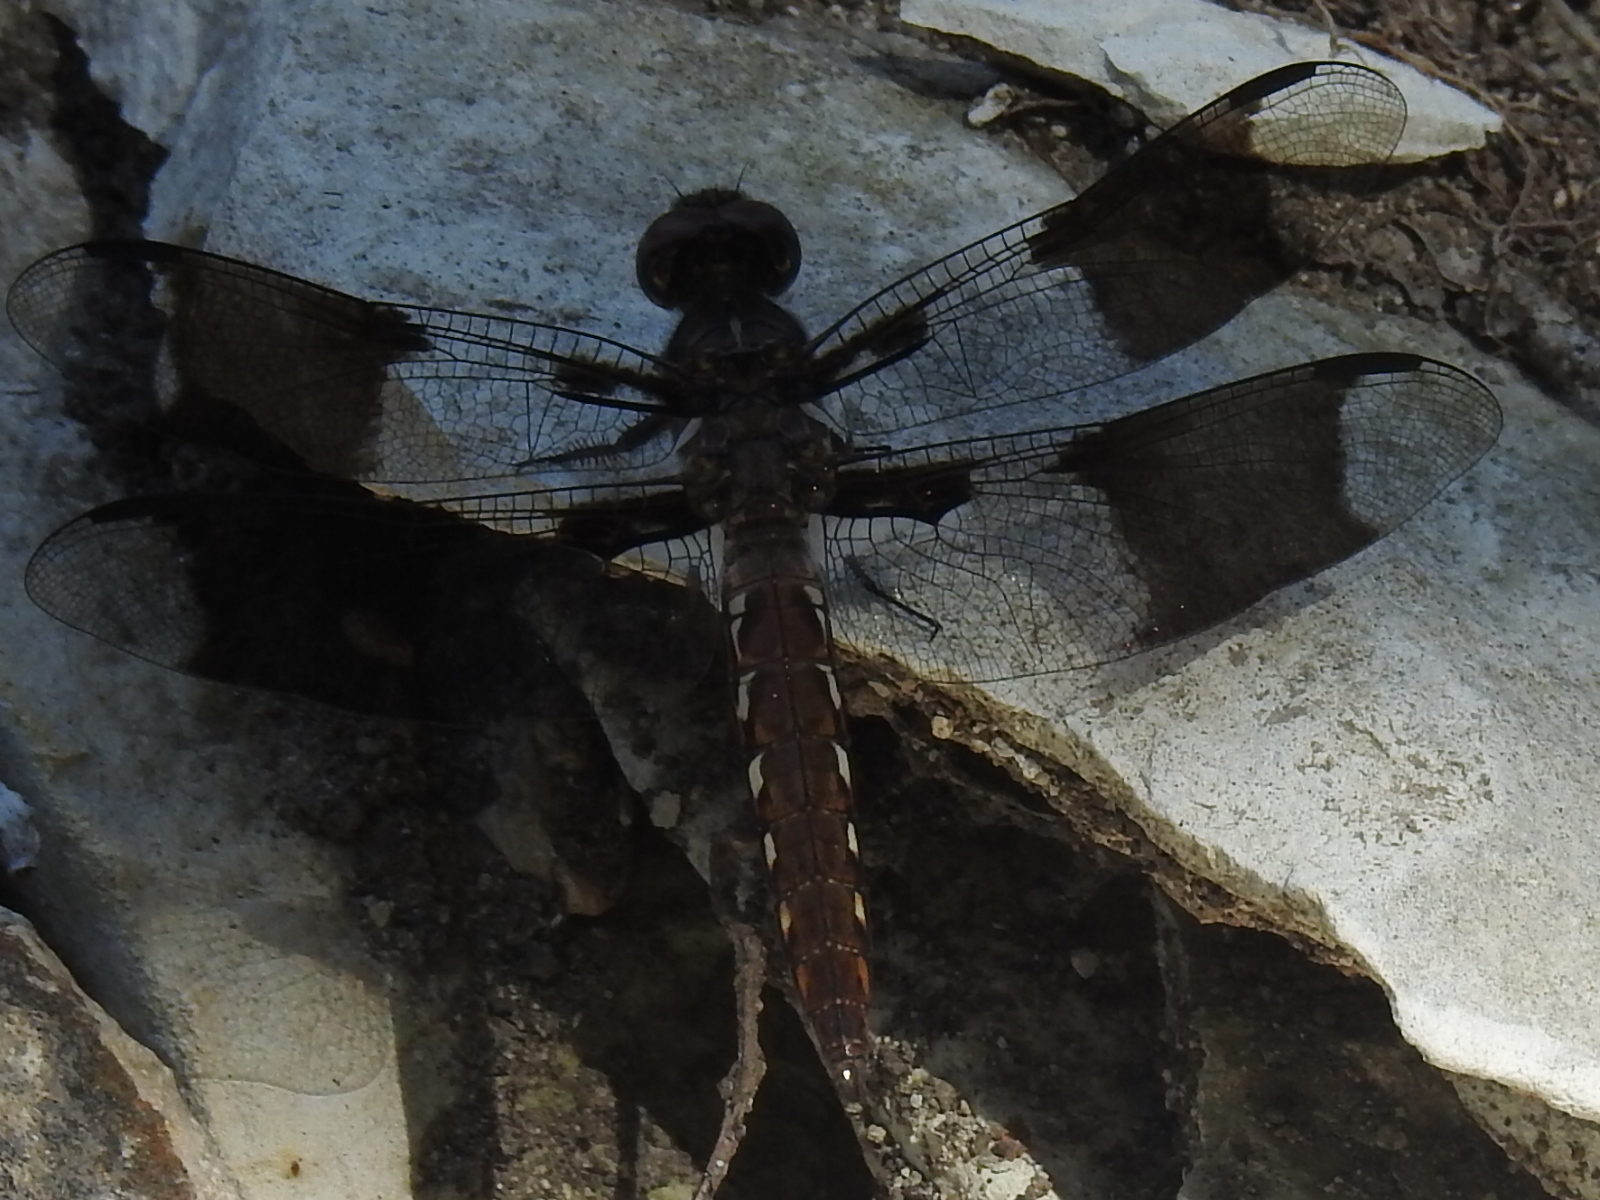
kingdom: Animalia
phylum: Arthropoda
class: Insecta
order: Odonata
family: Libellulidae
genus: Plathemis
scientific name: Plathemis lydia
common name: Common whitetail
